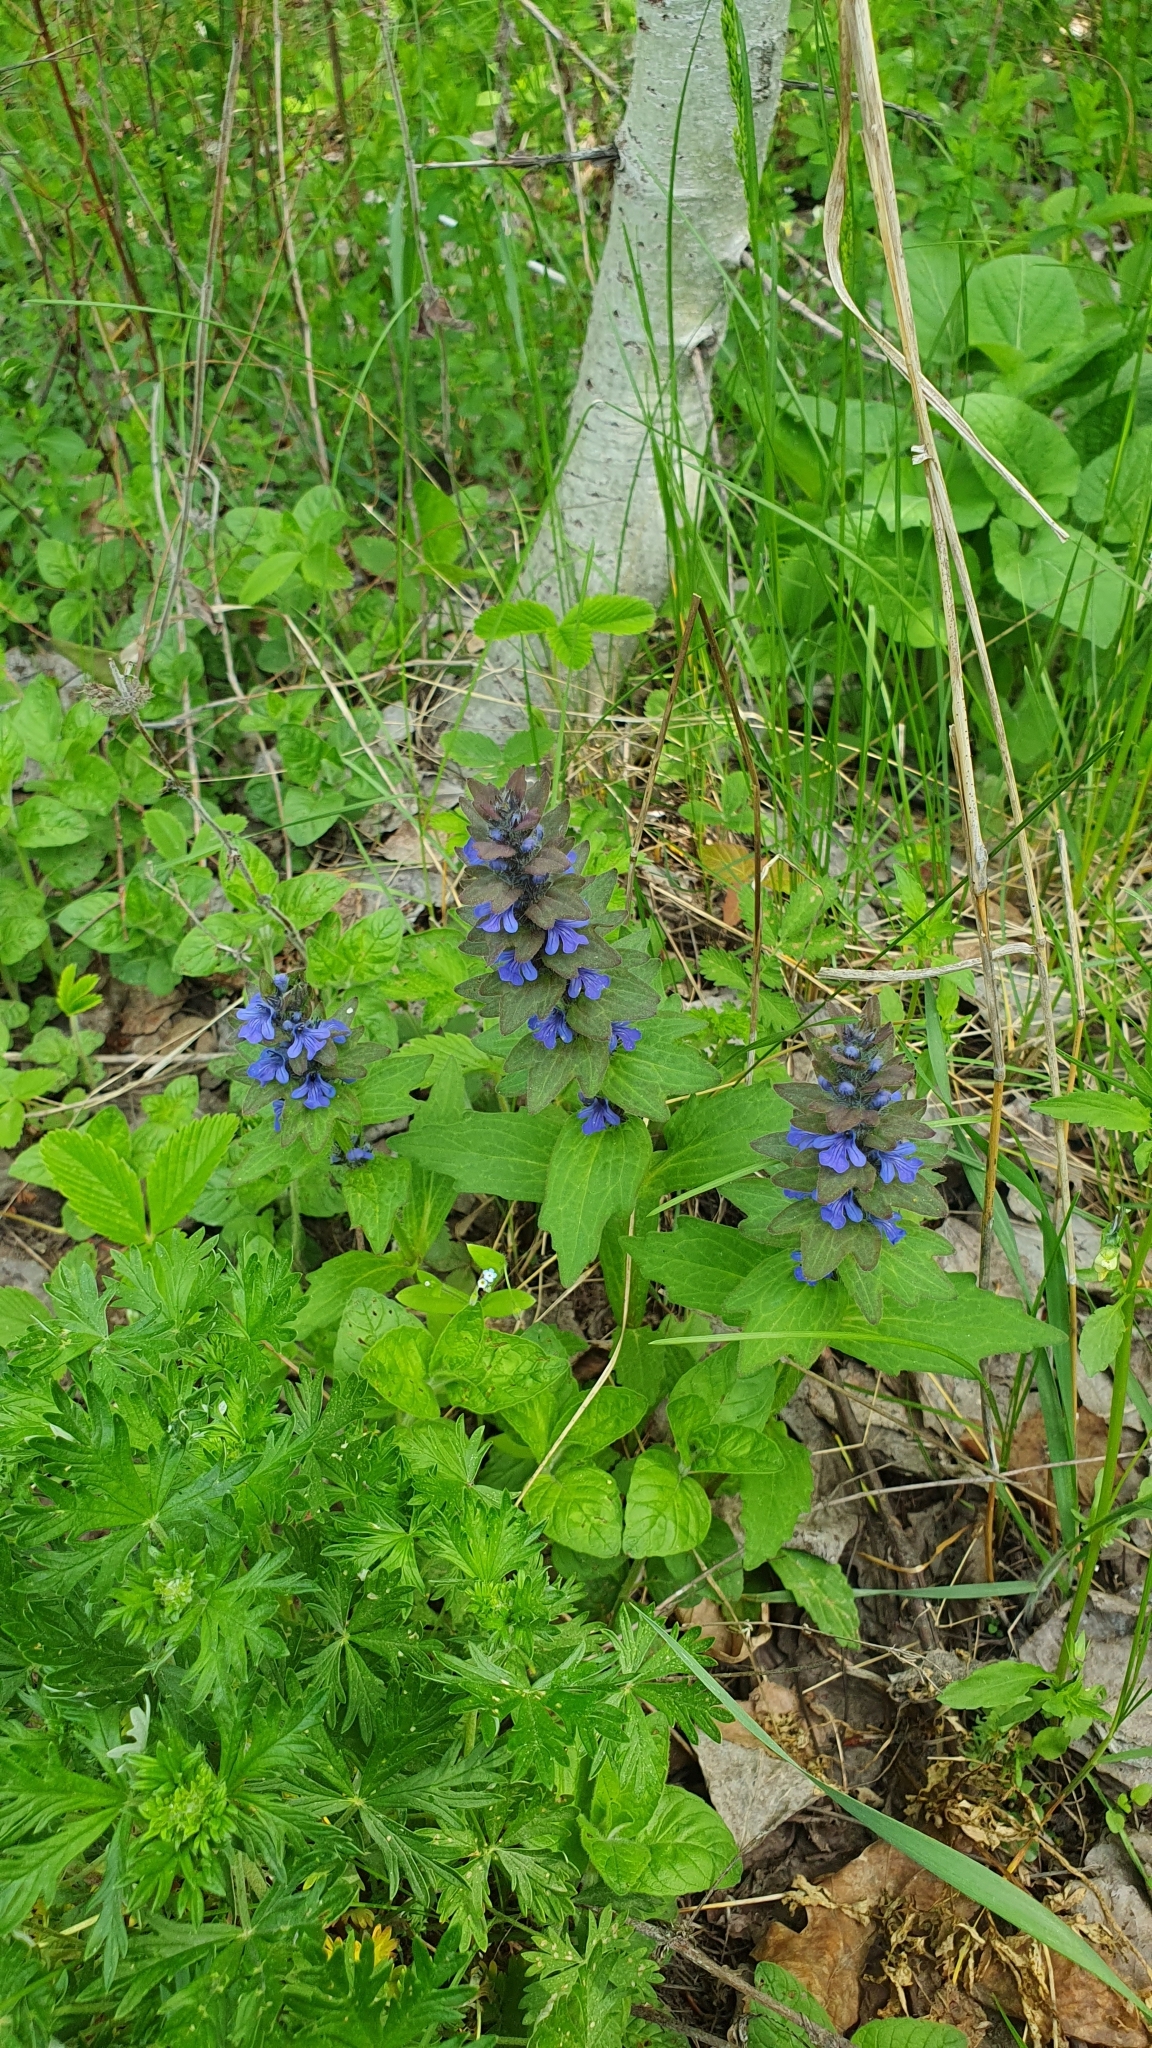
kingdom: Plantae
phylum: Tracheophyta
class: Magnoliopsida
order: Lamiales
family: Lamiaceae
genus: Ajuga
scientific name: Ajuga genevensis
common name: Blue bugle
